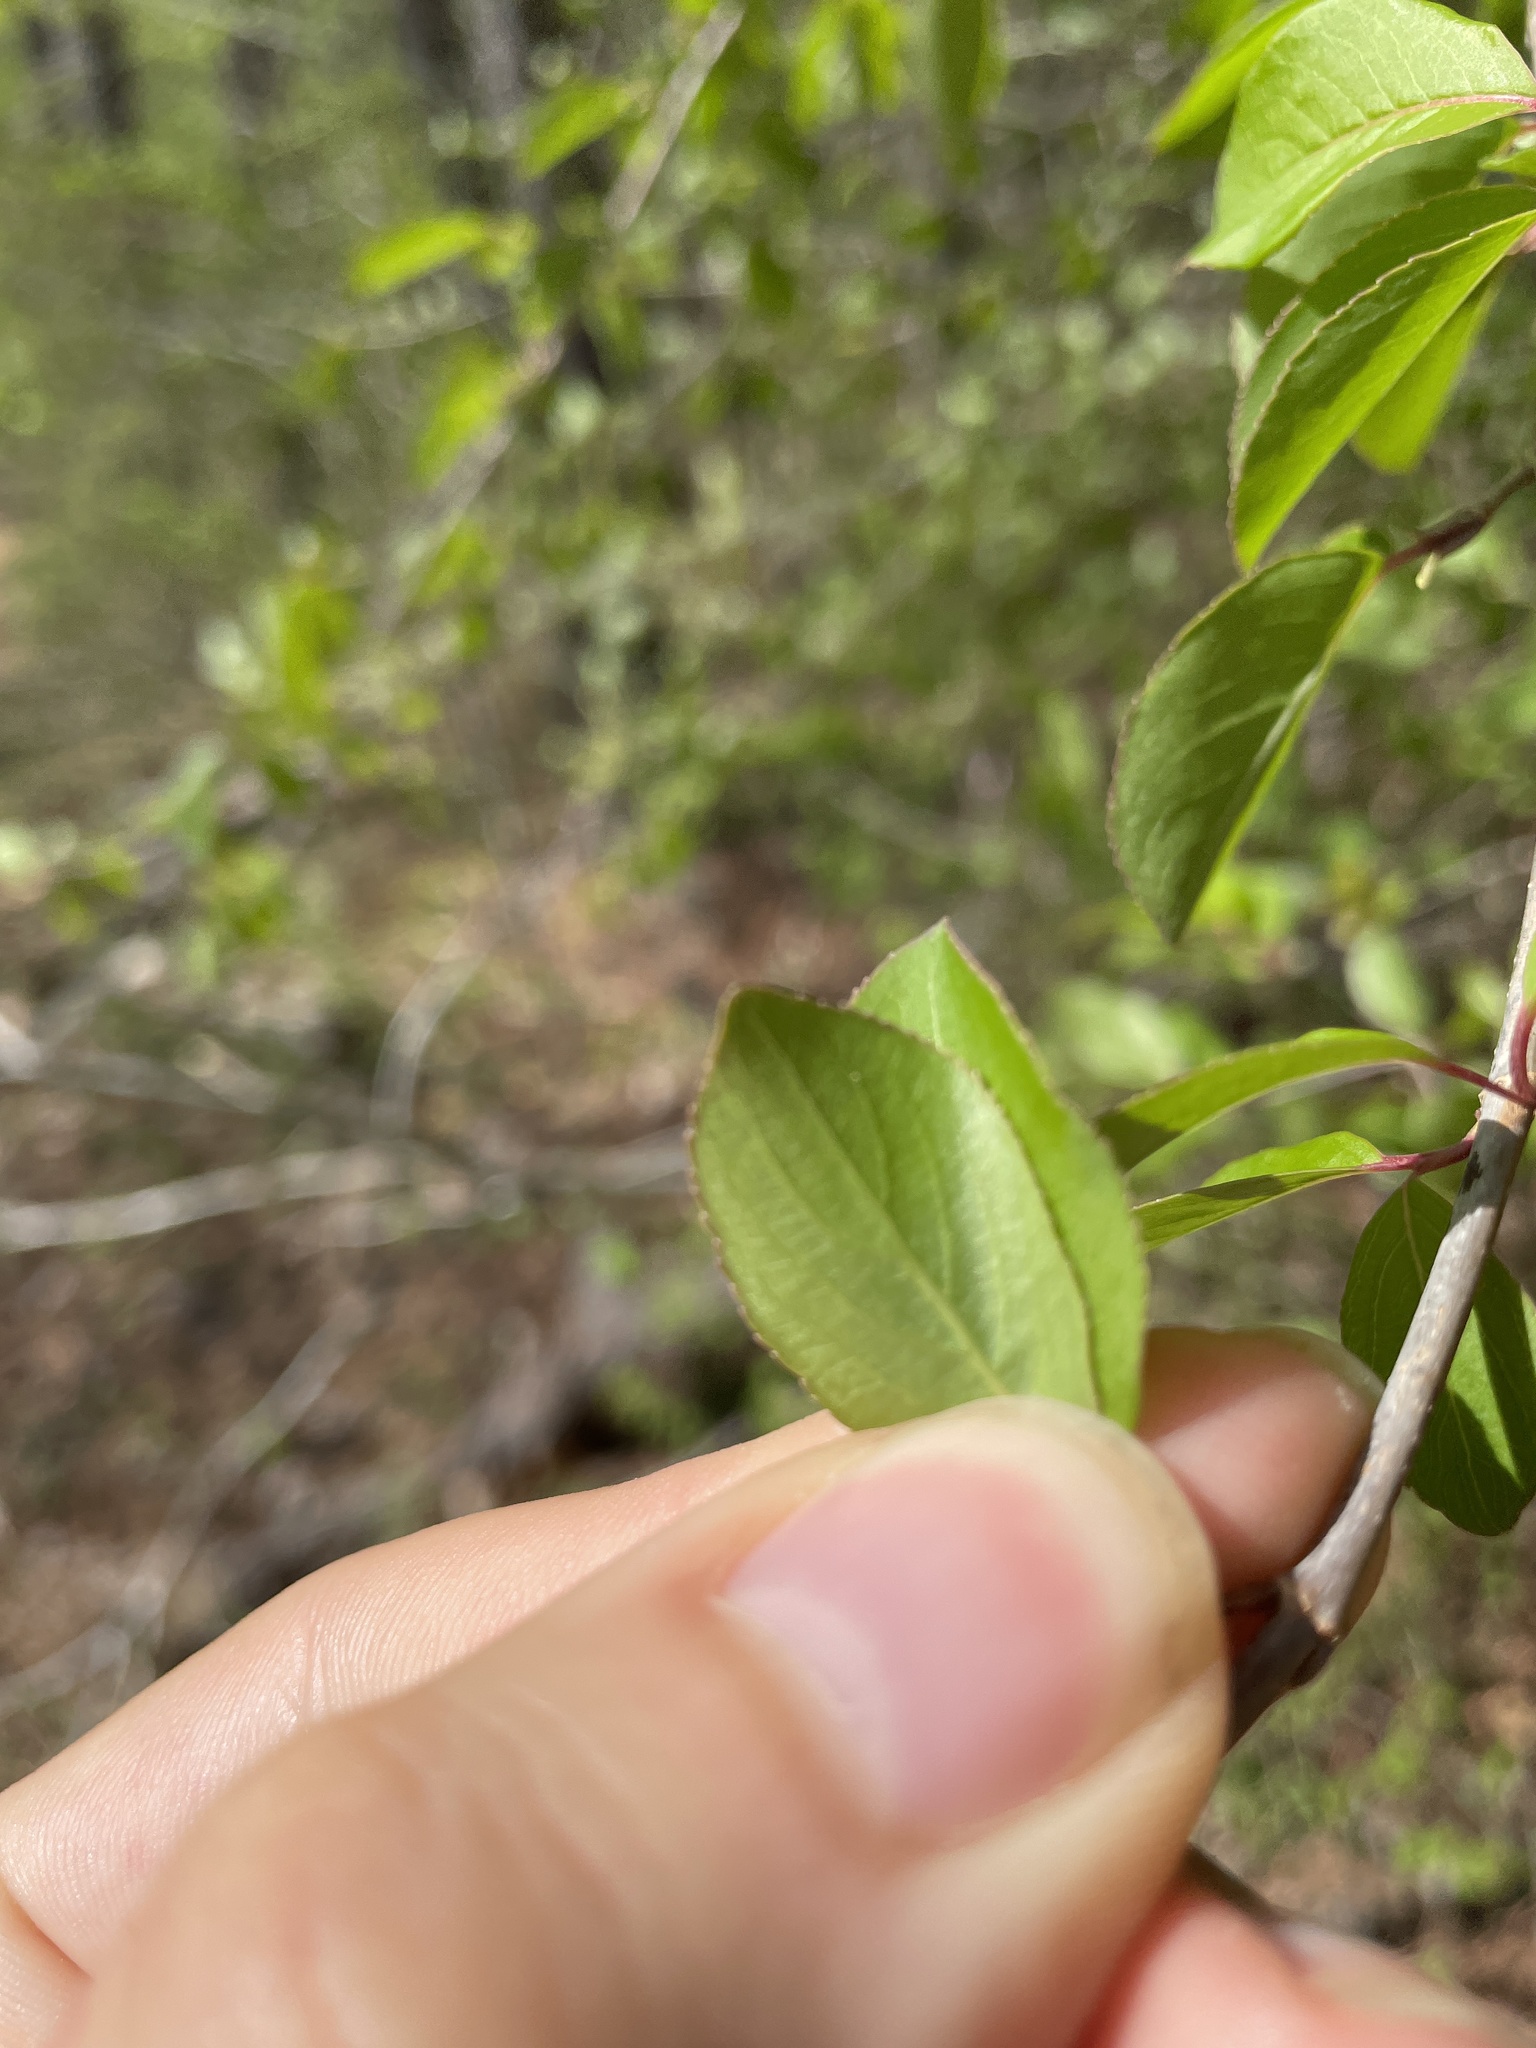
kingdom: Plantae
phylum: Tracheophyta
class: Magnoliopsida
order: Dipsacales
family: Viburnaceae
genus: Viburnum
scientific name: Viburnum prunifolium
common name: Black haw
